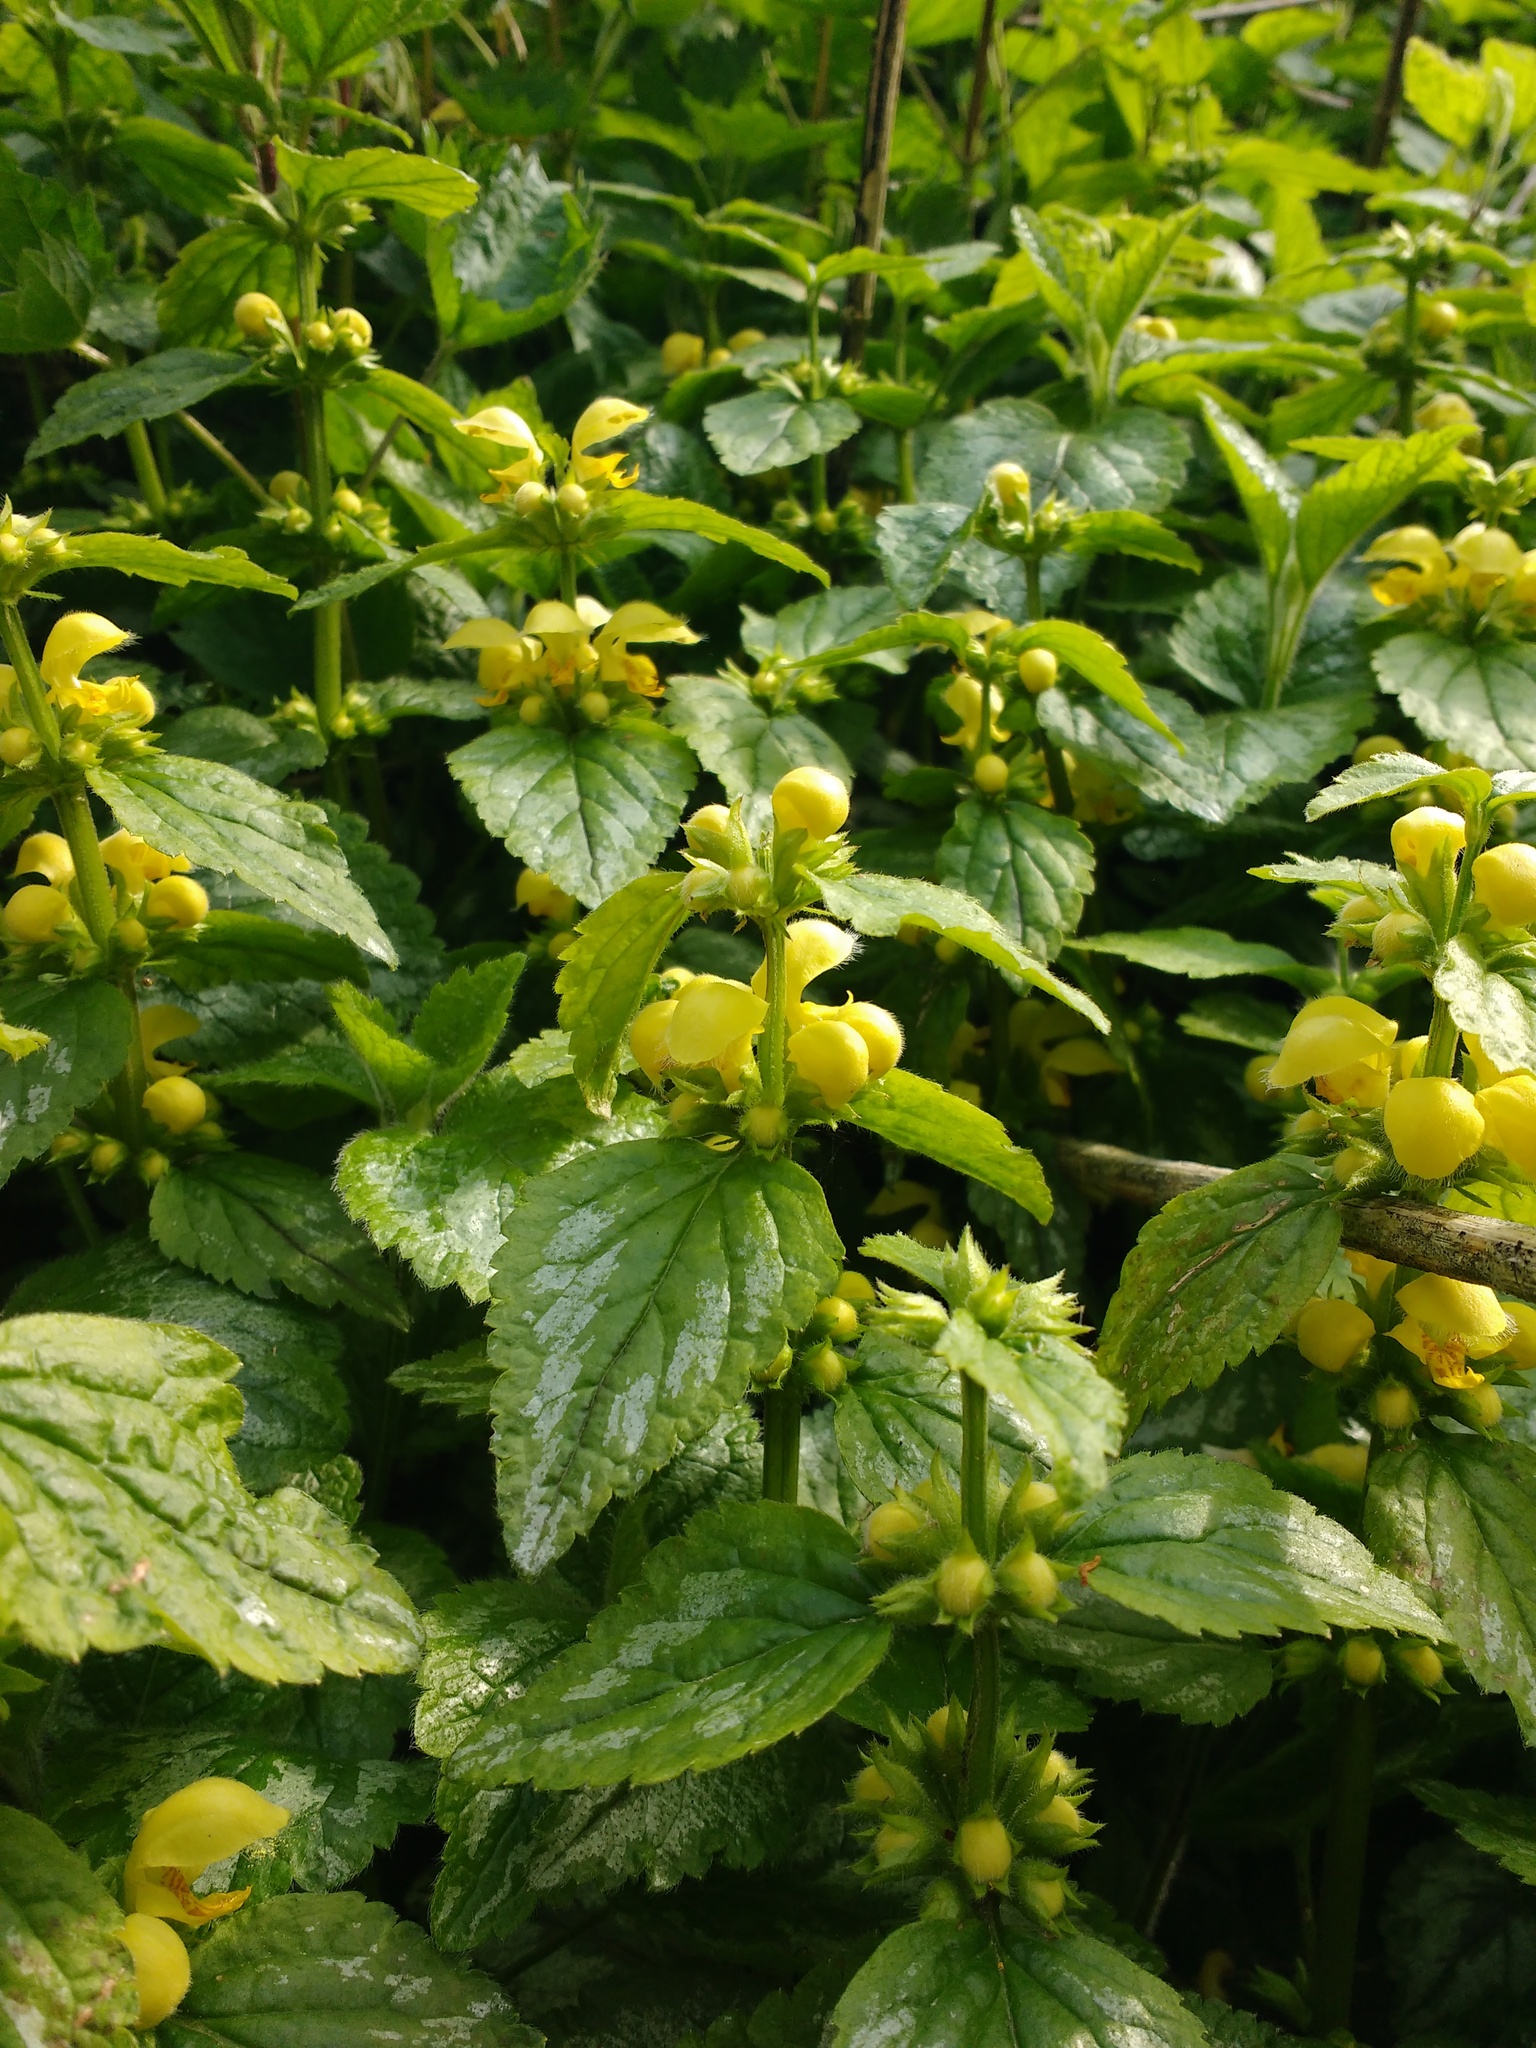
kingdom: Plantae
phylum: Tracheophyta
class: Magnoliopsida
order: Lamiales
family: Lamiaceae
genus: Lamium
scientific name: Lamium galeobdolon
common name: Yellow archangel
